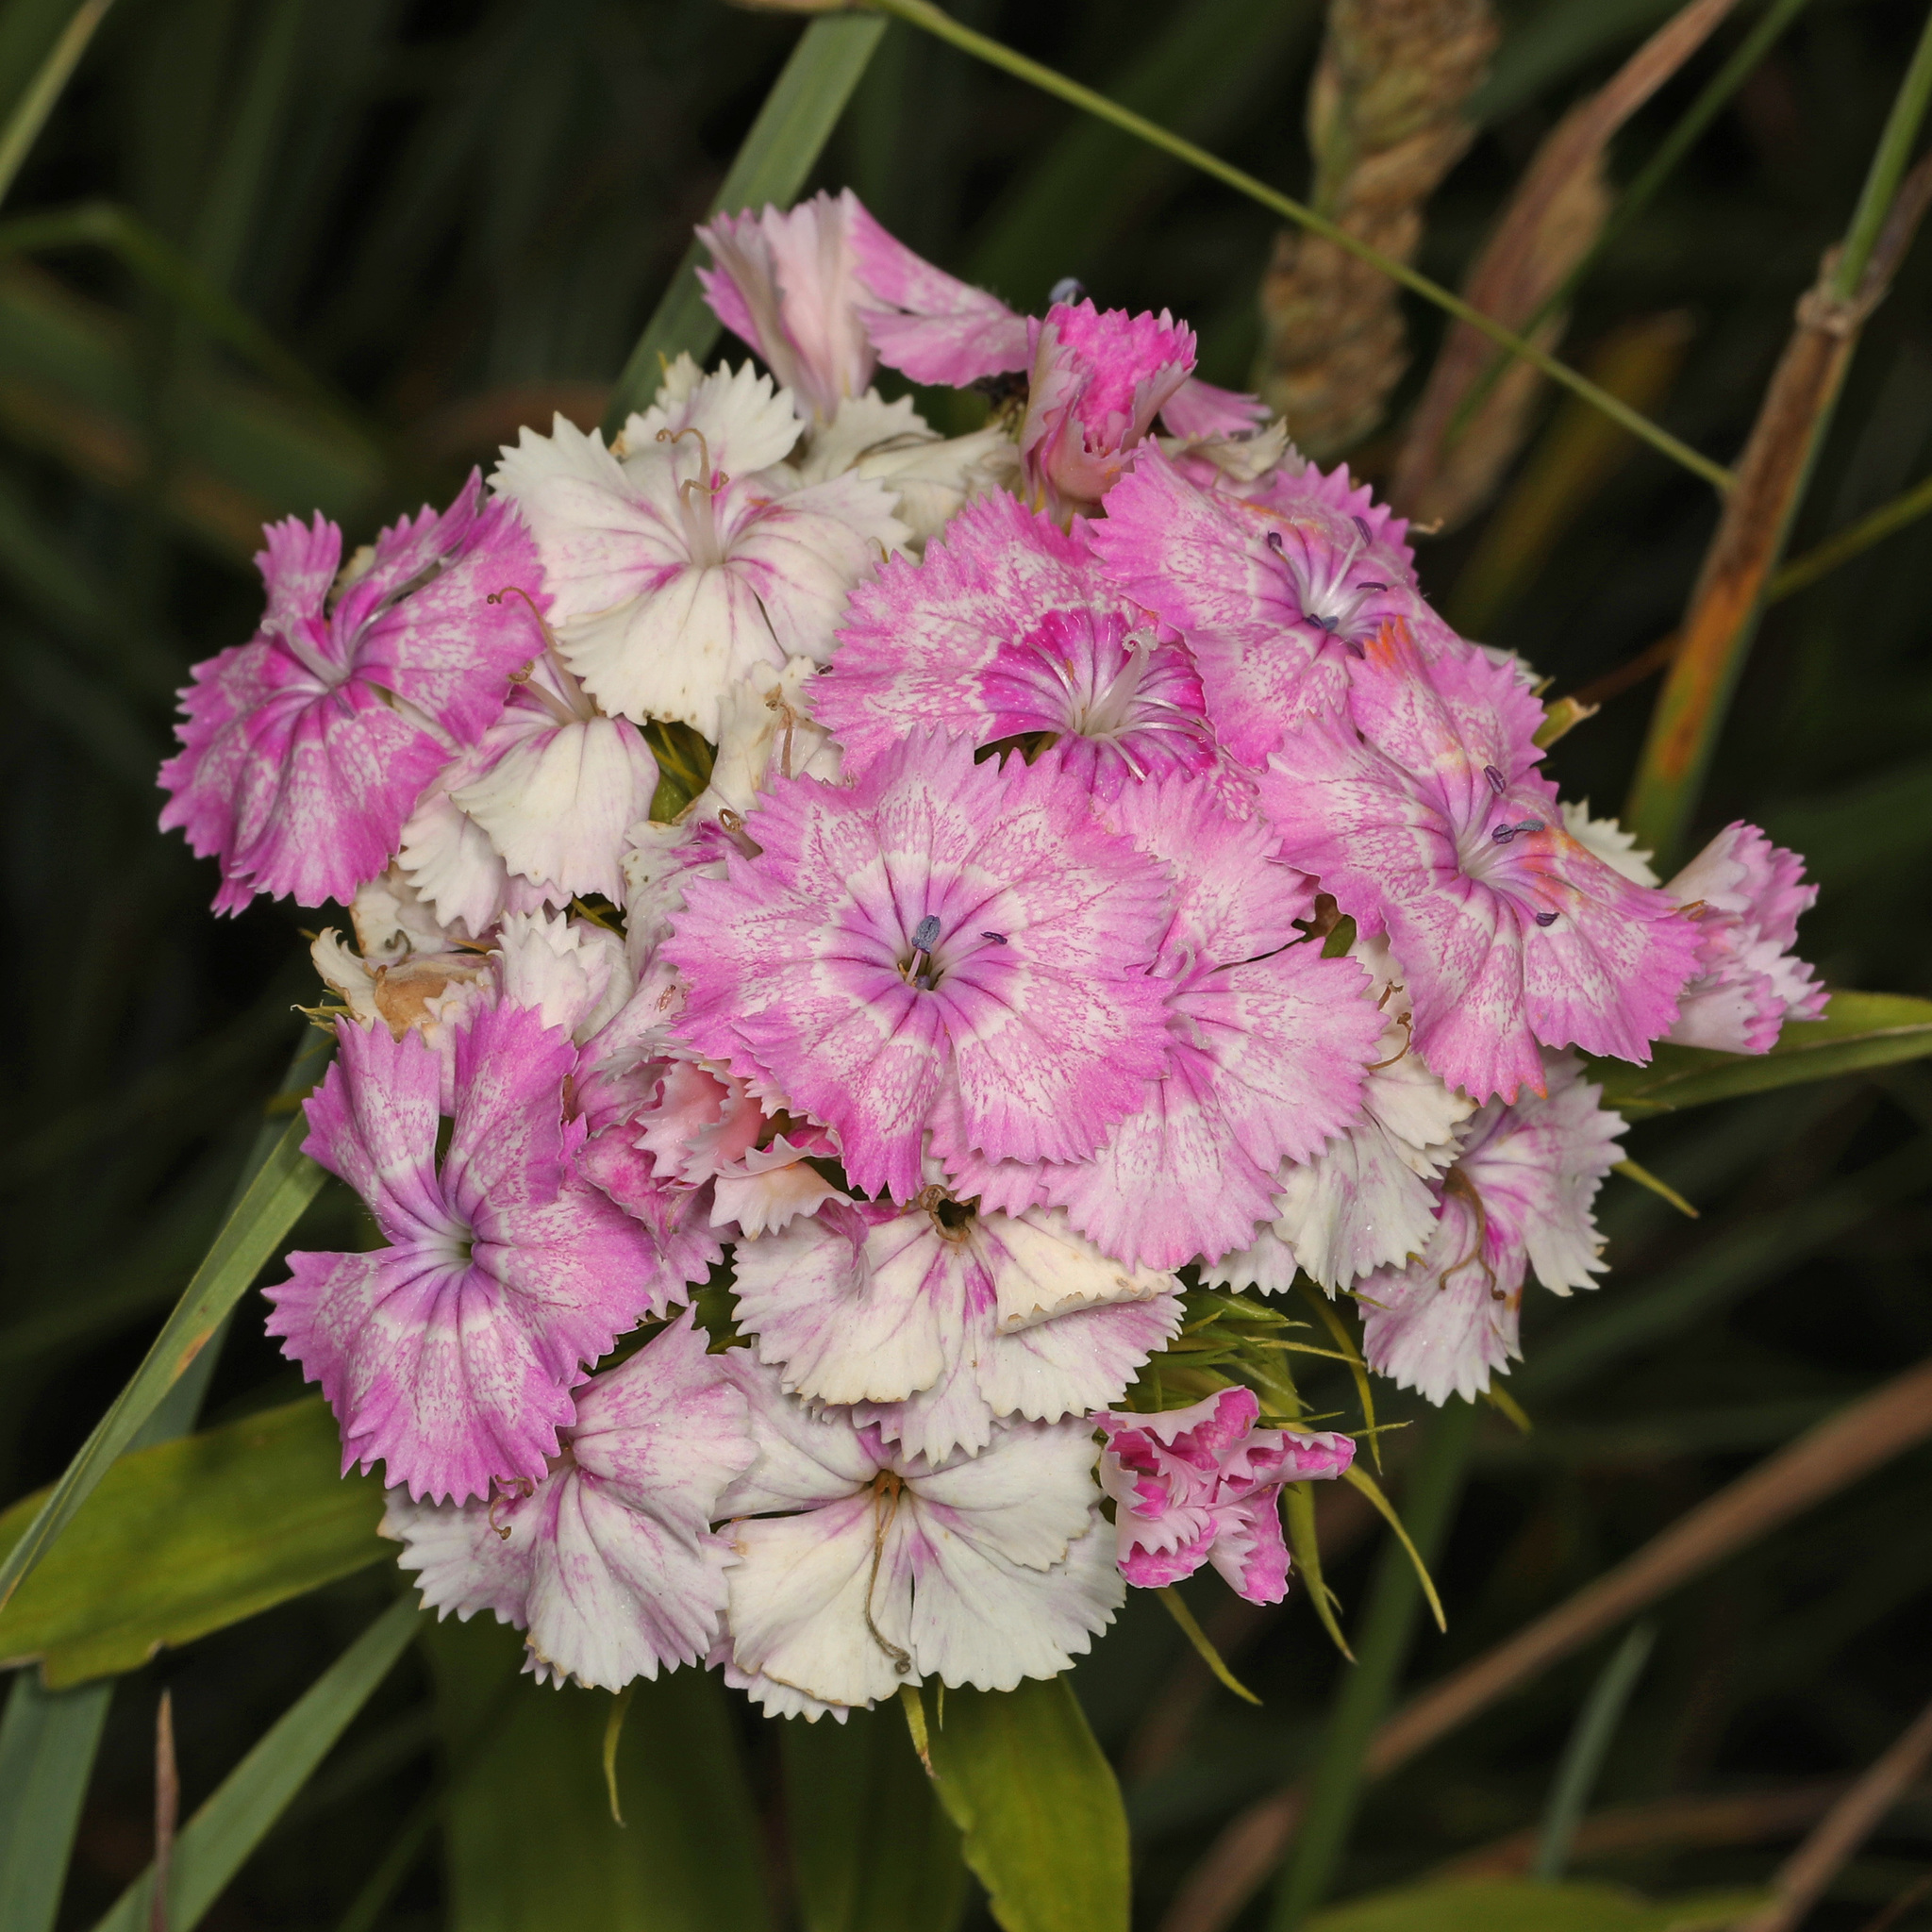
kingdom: Plantae
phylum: Tracheophyta
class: Magnoliopsida
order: Caryophyllales
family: Caryophyllaceae
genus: Dianthus
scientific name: Dianthus barbatus
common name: Sweet-william
